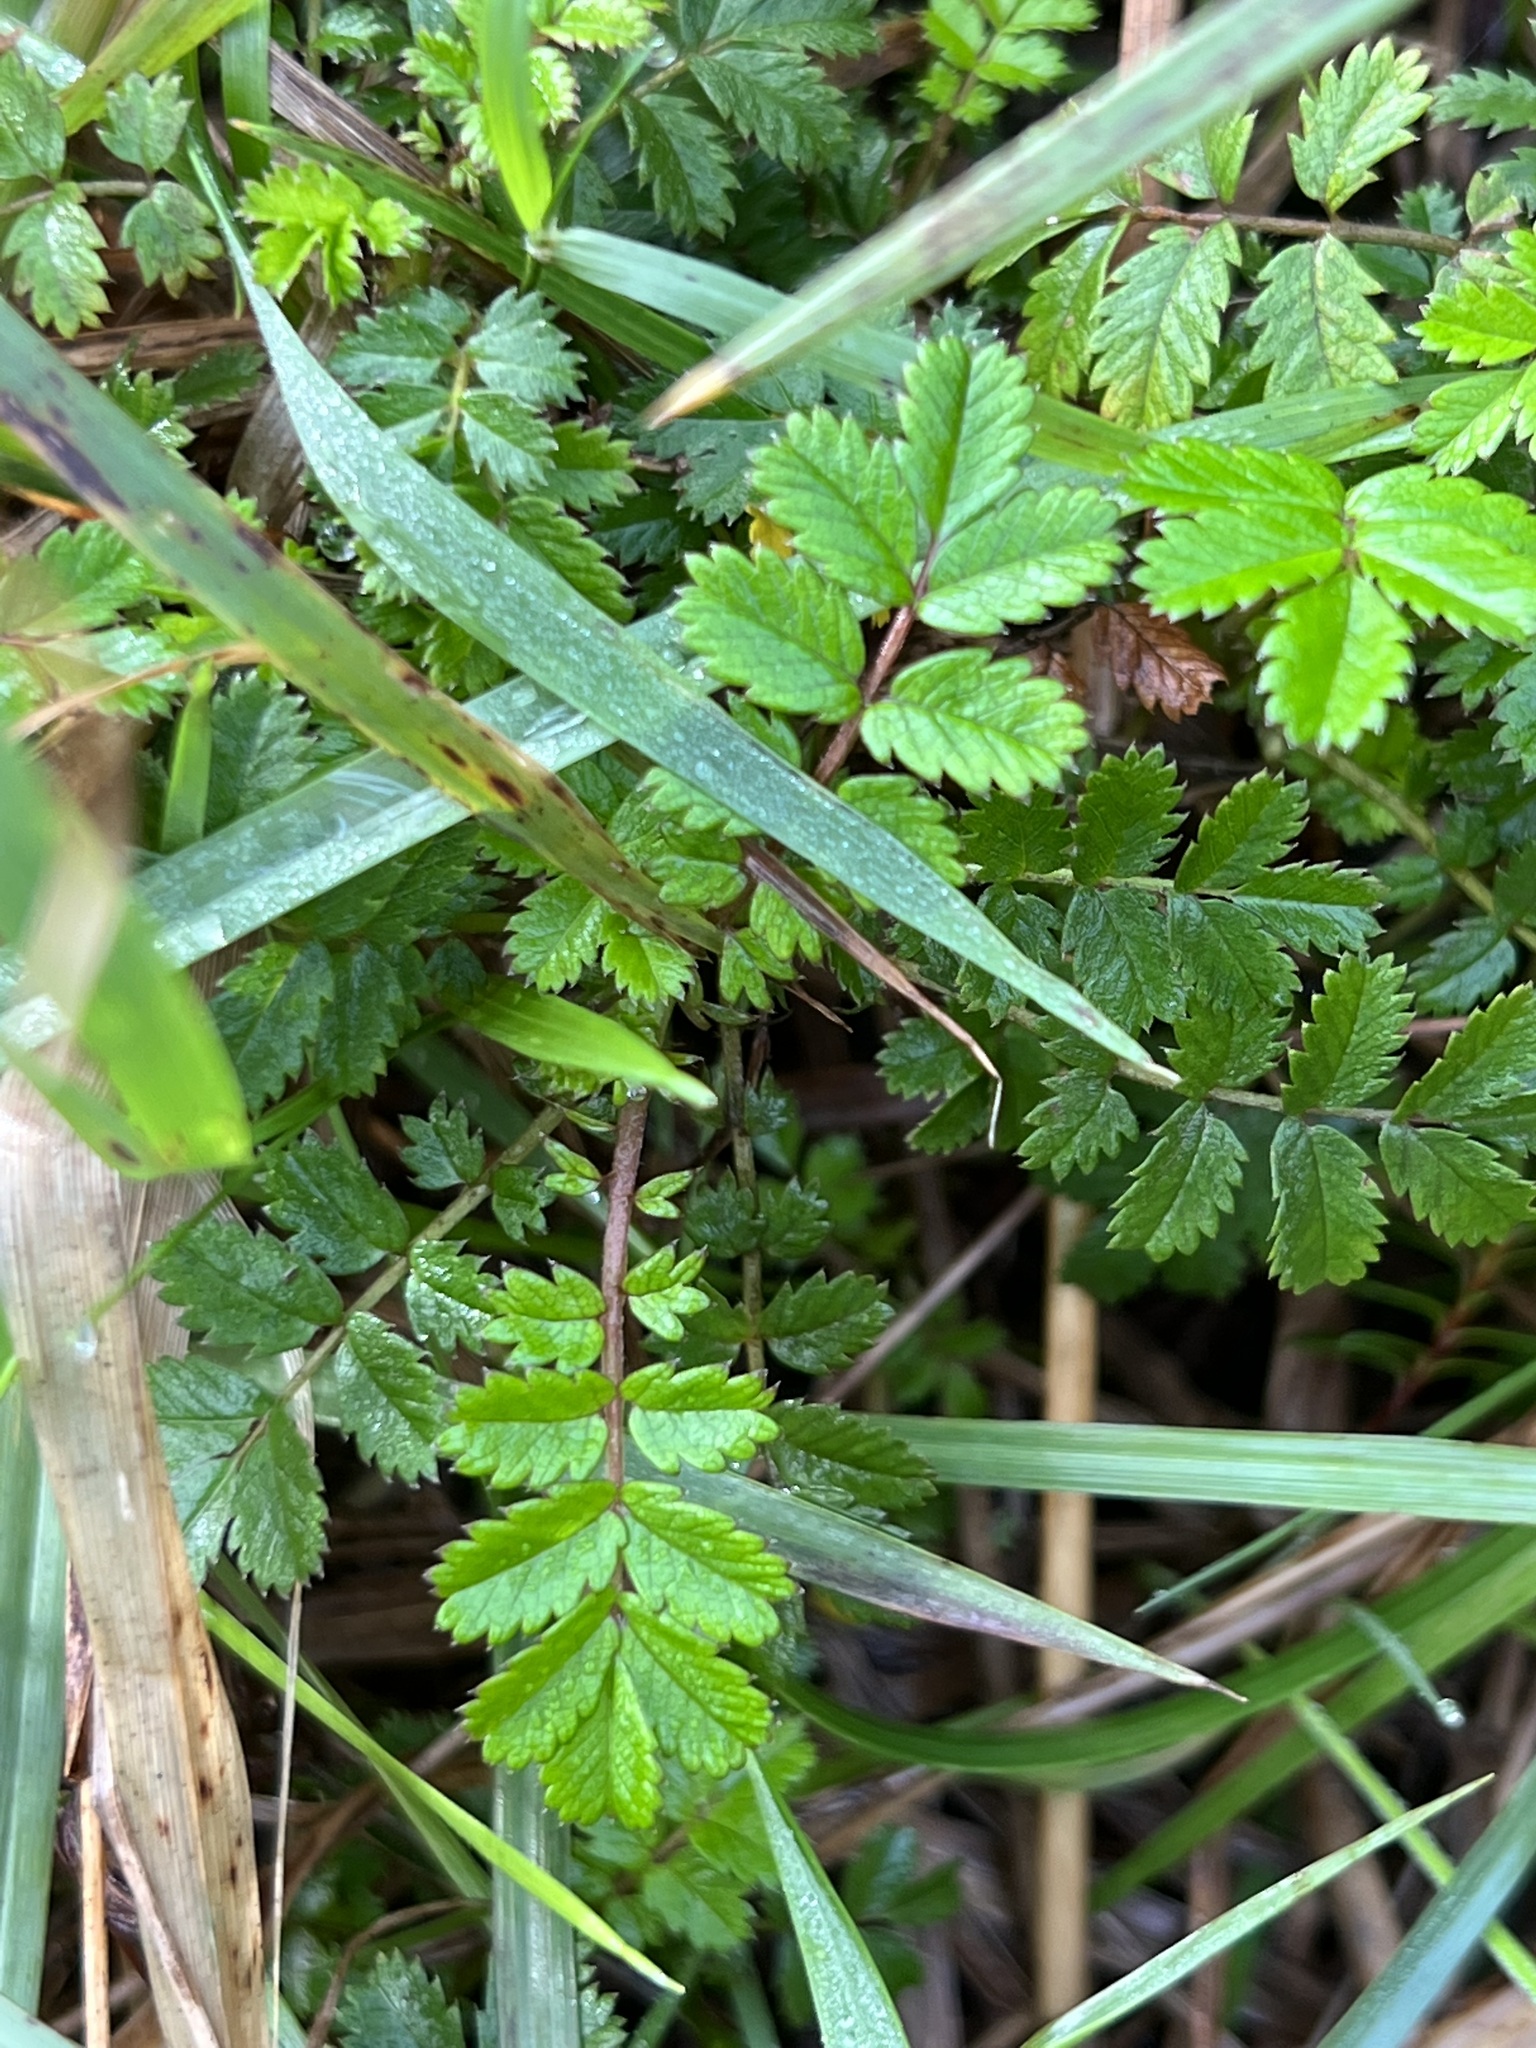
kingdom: Plantae
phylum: Tracheophyta
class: Magnoliopsida
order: Rosales
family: Rosaceae
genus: Acaena
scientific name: Acaena anserinifolia
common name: Bronze pirri-pirri-bur
